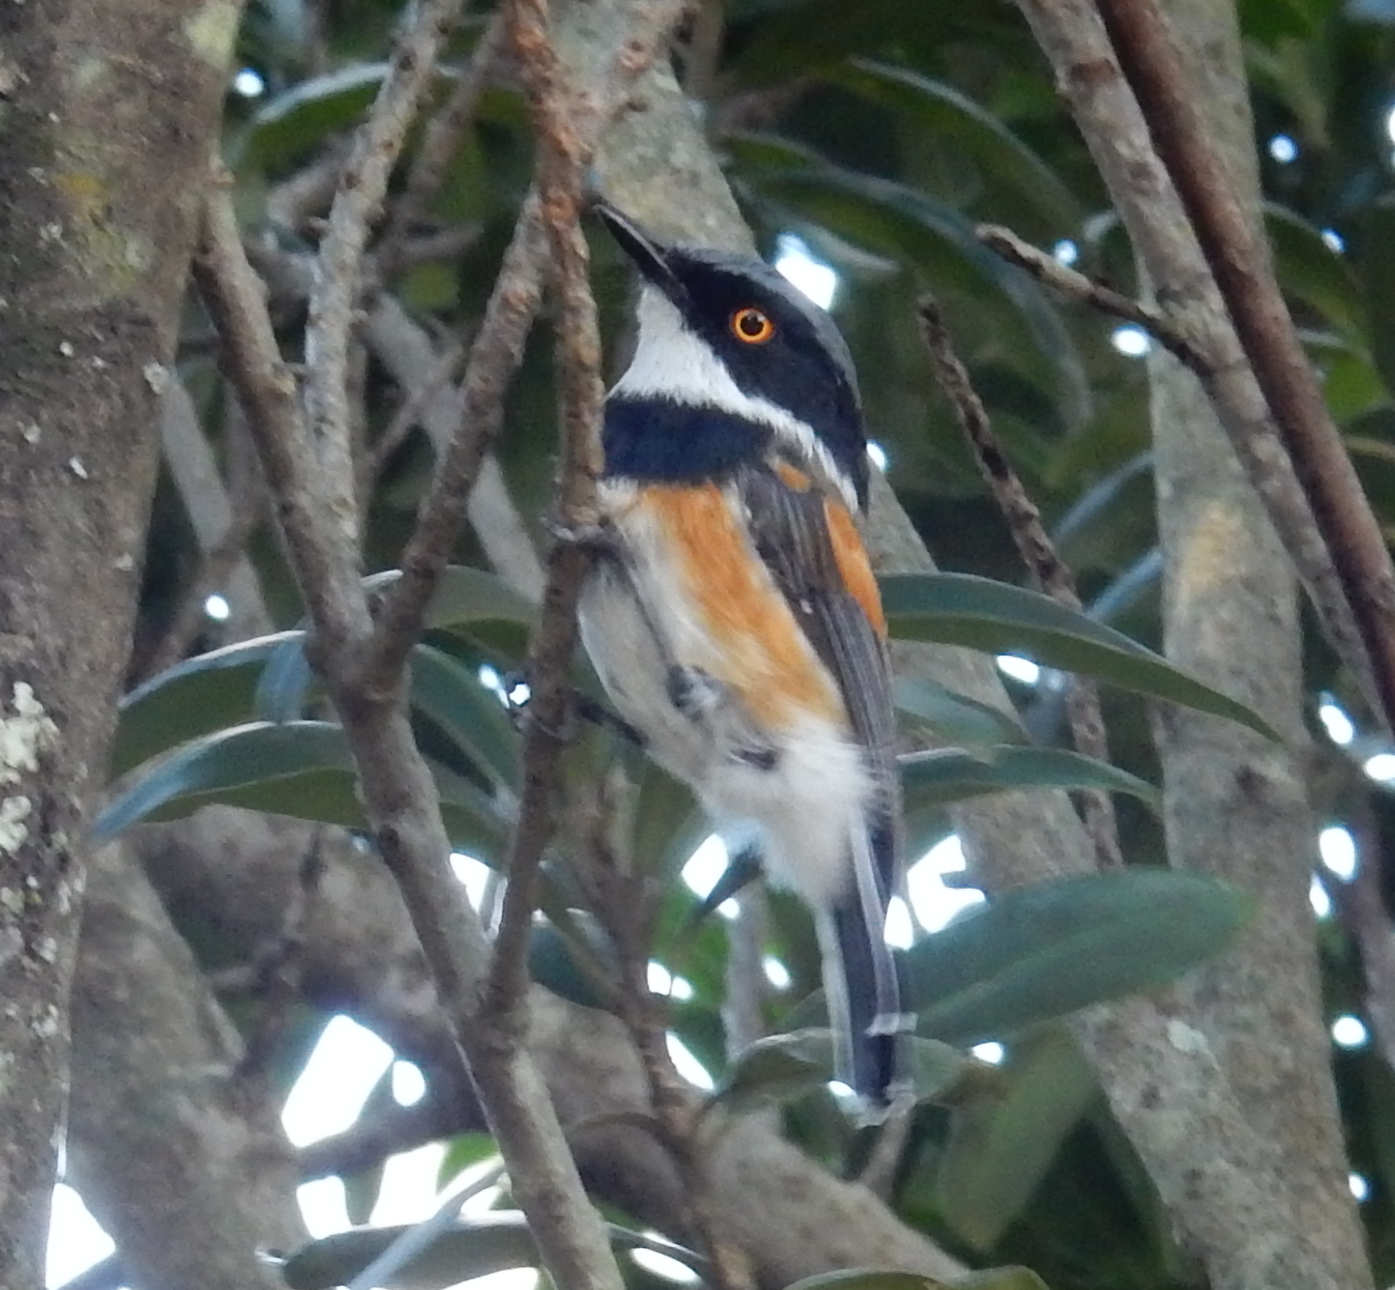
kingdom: Animalia
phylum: Chordata
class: Aves
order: Passeriformes
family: Platysteiridae
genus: Batis
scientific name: Batis capensis
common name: Cape batis
